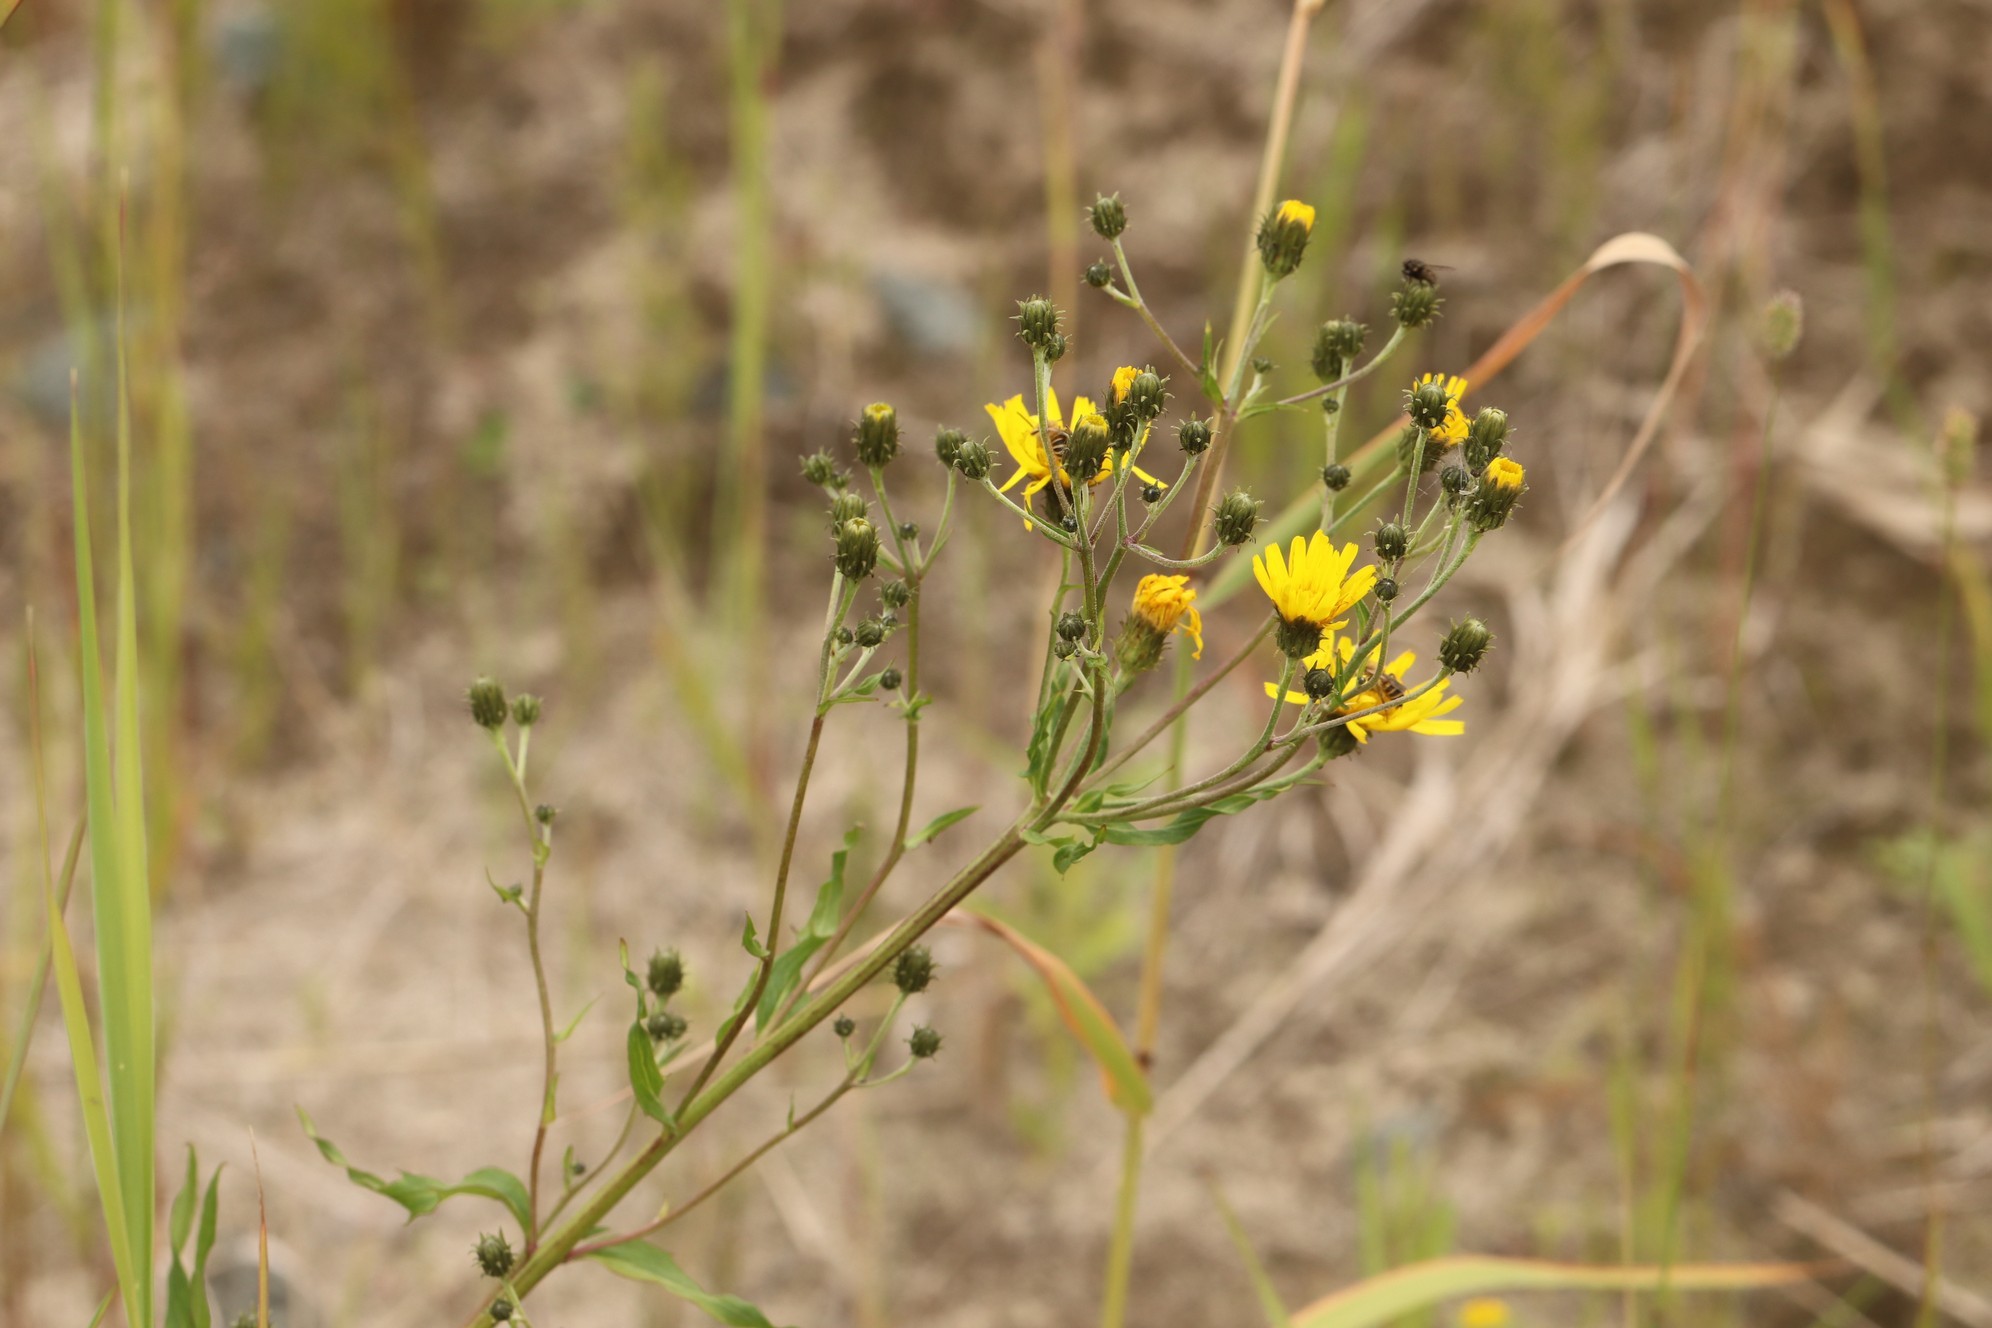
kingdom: Plantae
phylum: Tracheophyta
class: Magnoliopsida
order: Asterales
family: Asteraceae
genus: Hieracium
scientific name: Hieracium umbellatum
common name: Northern hawkweed
